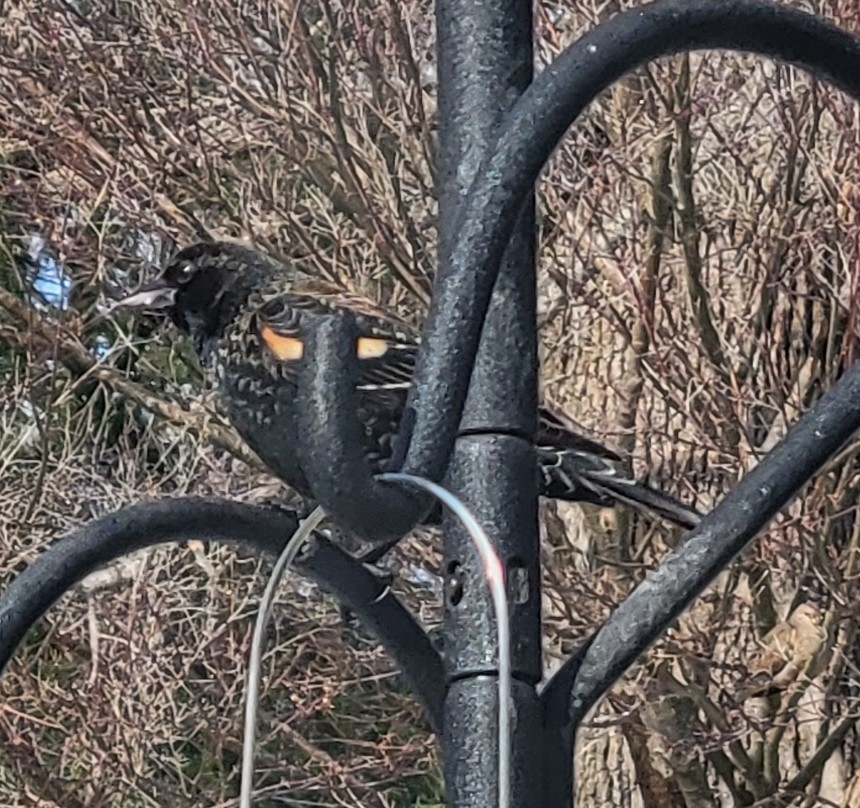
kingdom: Animalia
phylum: Chordata
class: Aves
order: Passeriformes
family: Icteridae
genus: Agelaius
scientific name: Agelaius phoeniceus
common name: Red-winged blackbird
